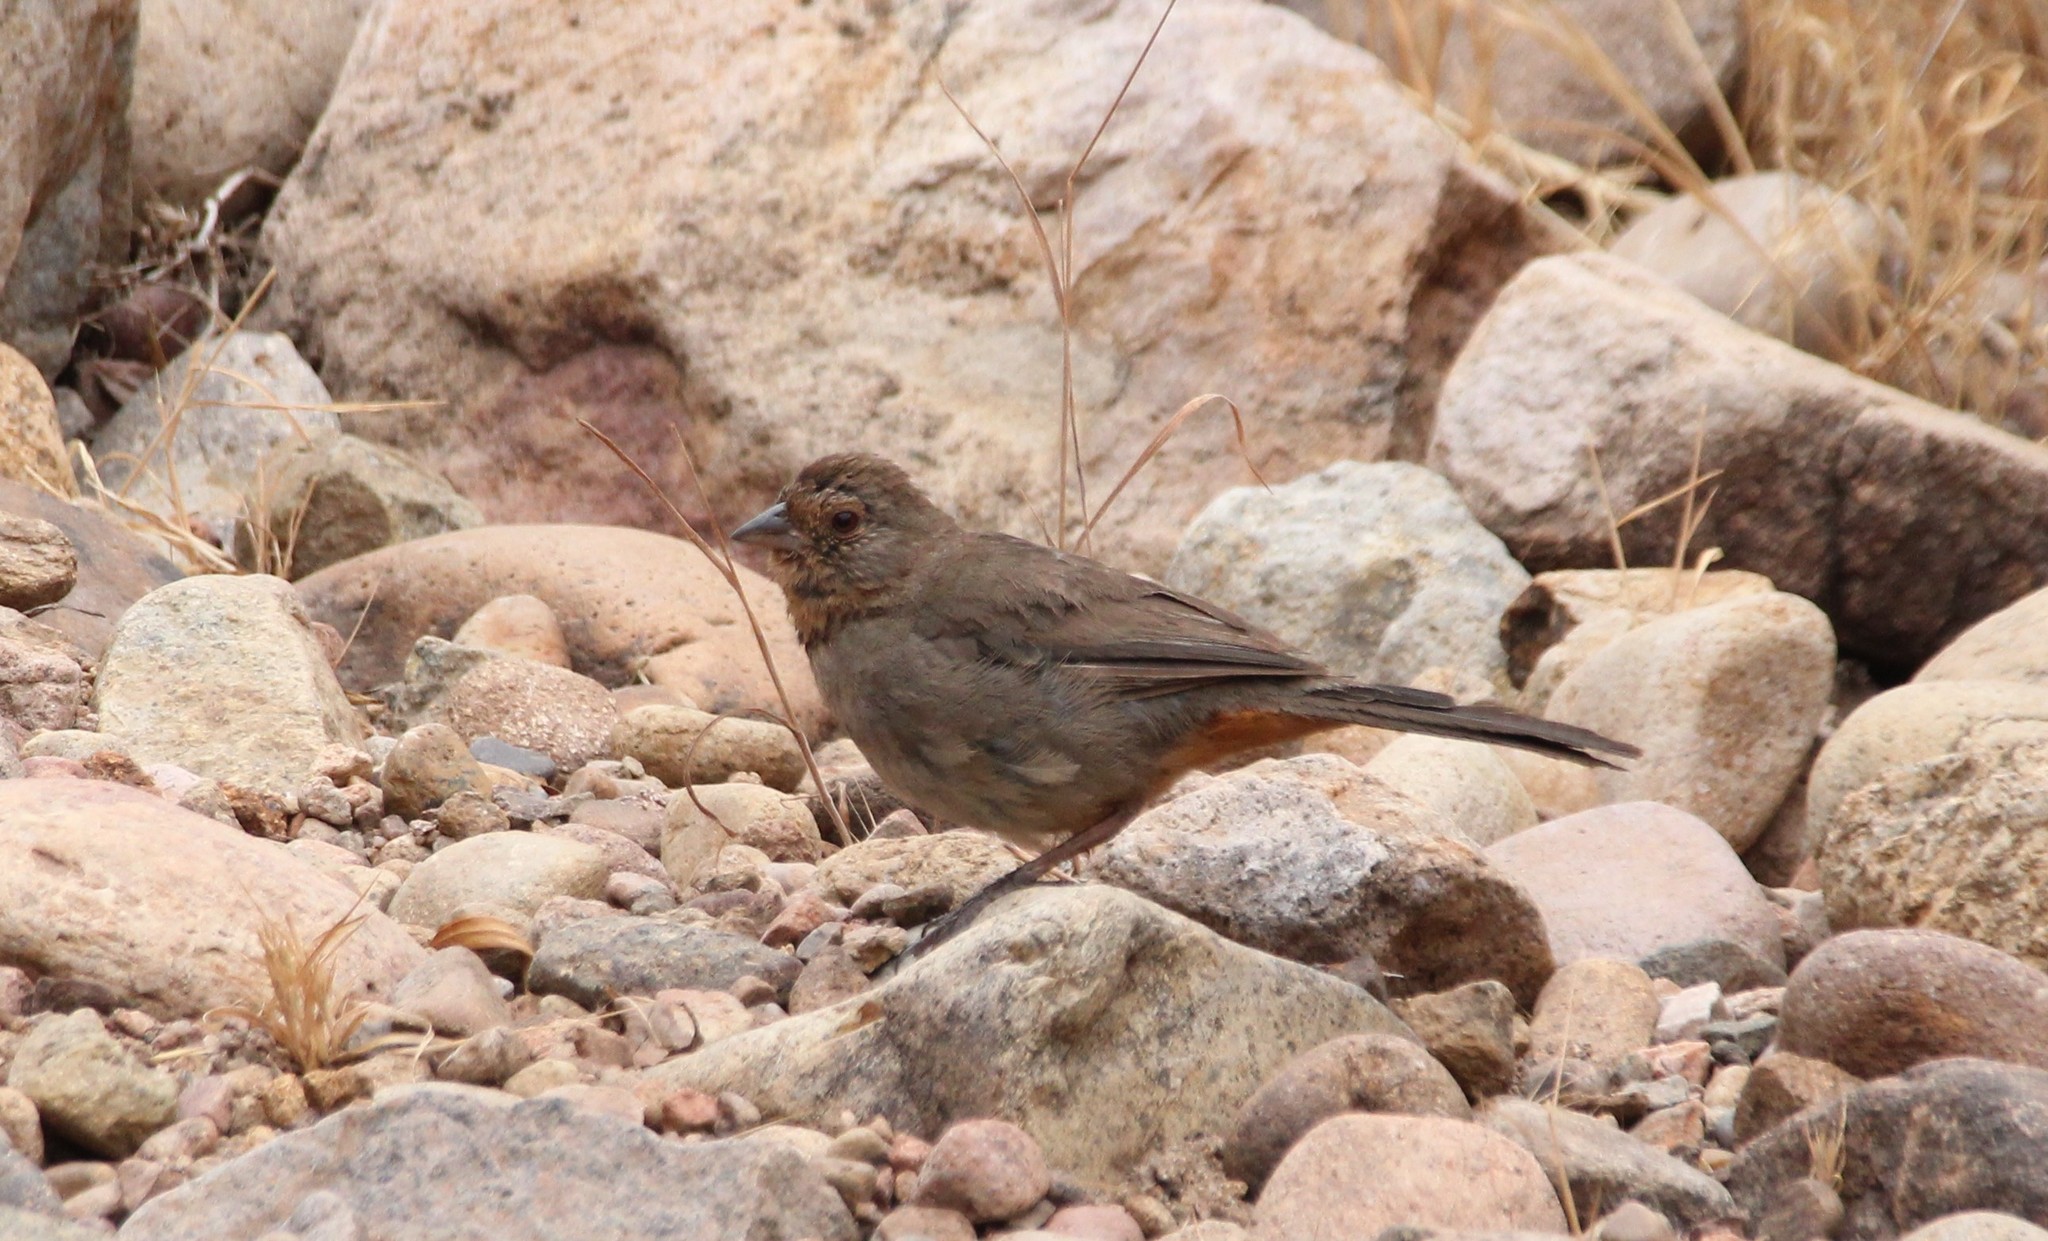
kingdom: Animalia
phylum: Chordata
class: Aves
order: Passeriformes
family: Passerellidae
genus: Melozone
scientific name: Melozone crissalis
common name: California towhee
